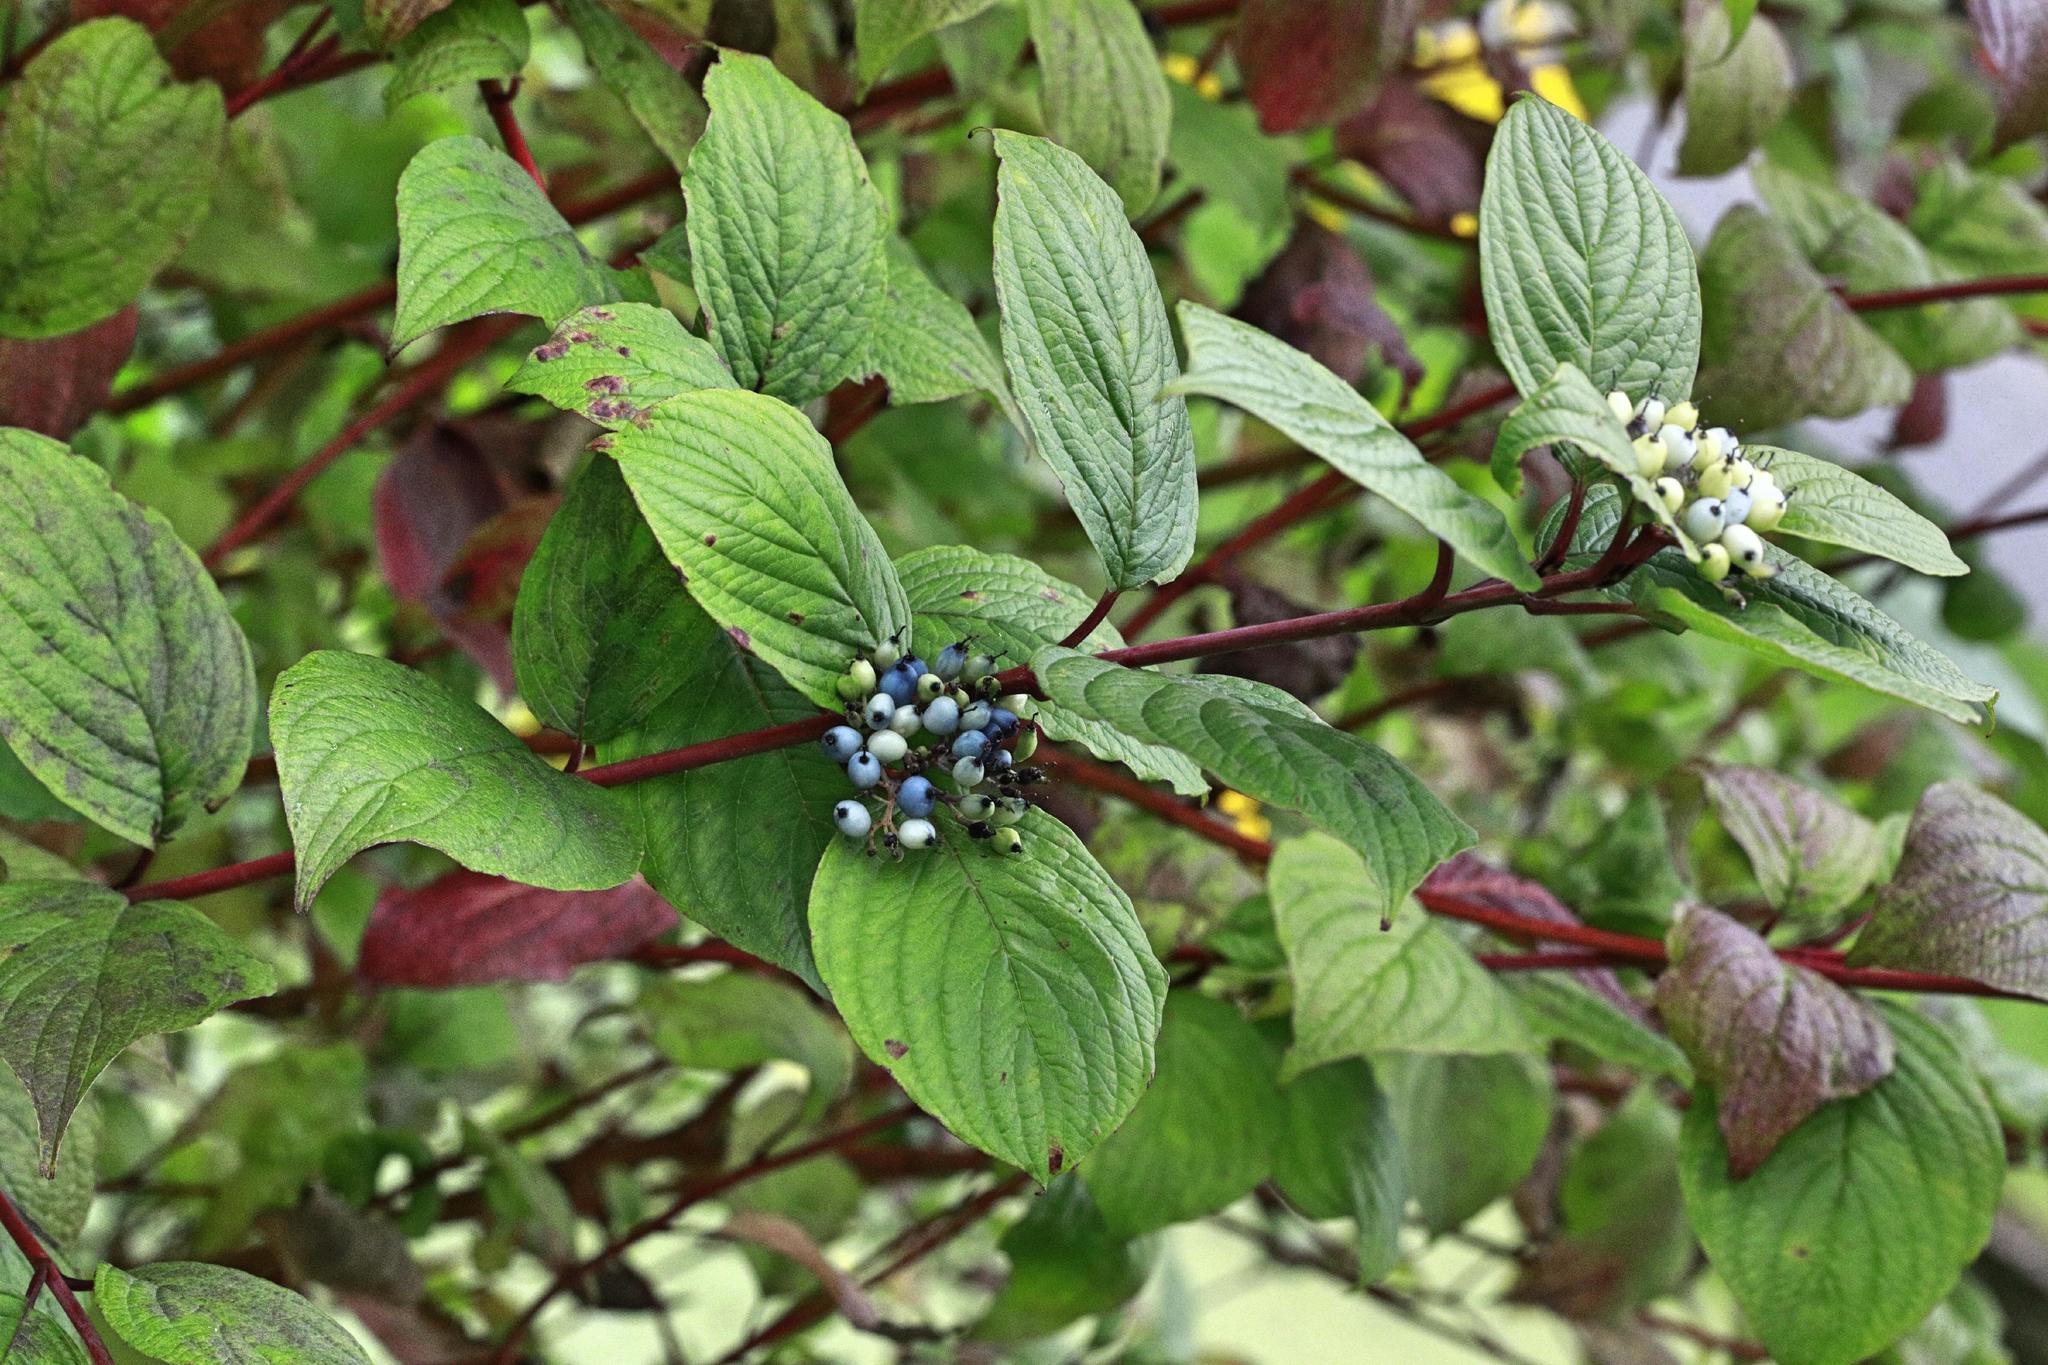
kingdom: Plantae
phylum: Tracheophyta
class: Magnoliopsida
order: Cornales
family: Cornaceae
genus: Cornus
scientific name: Cornus sanguinea
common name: Dogwood
